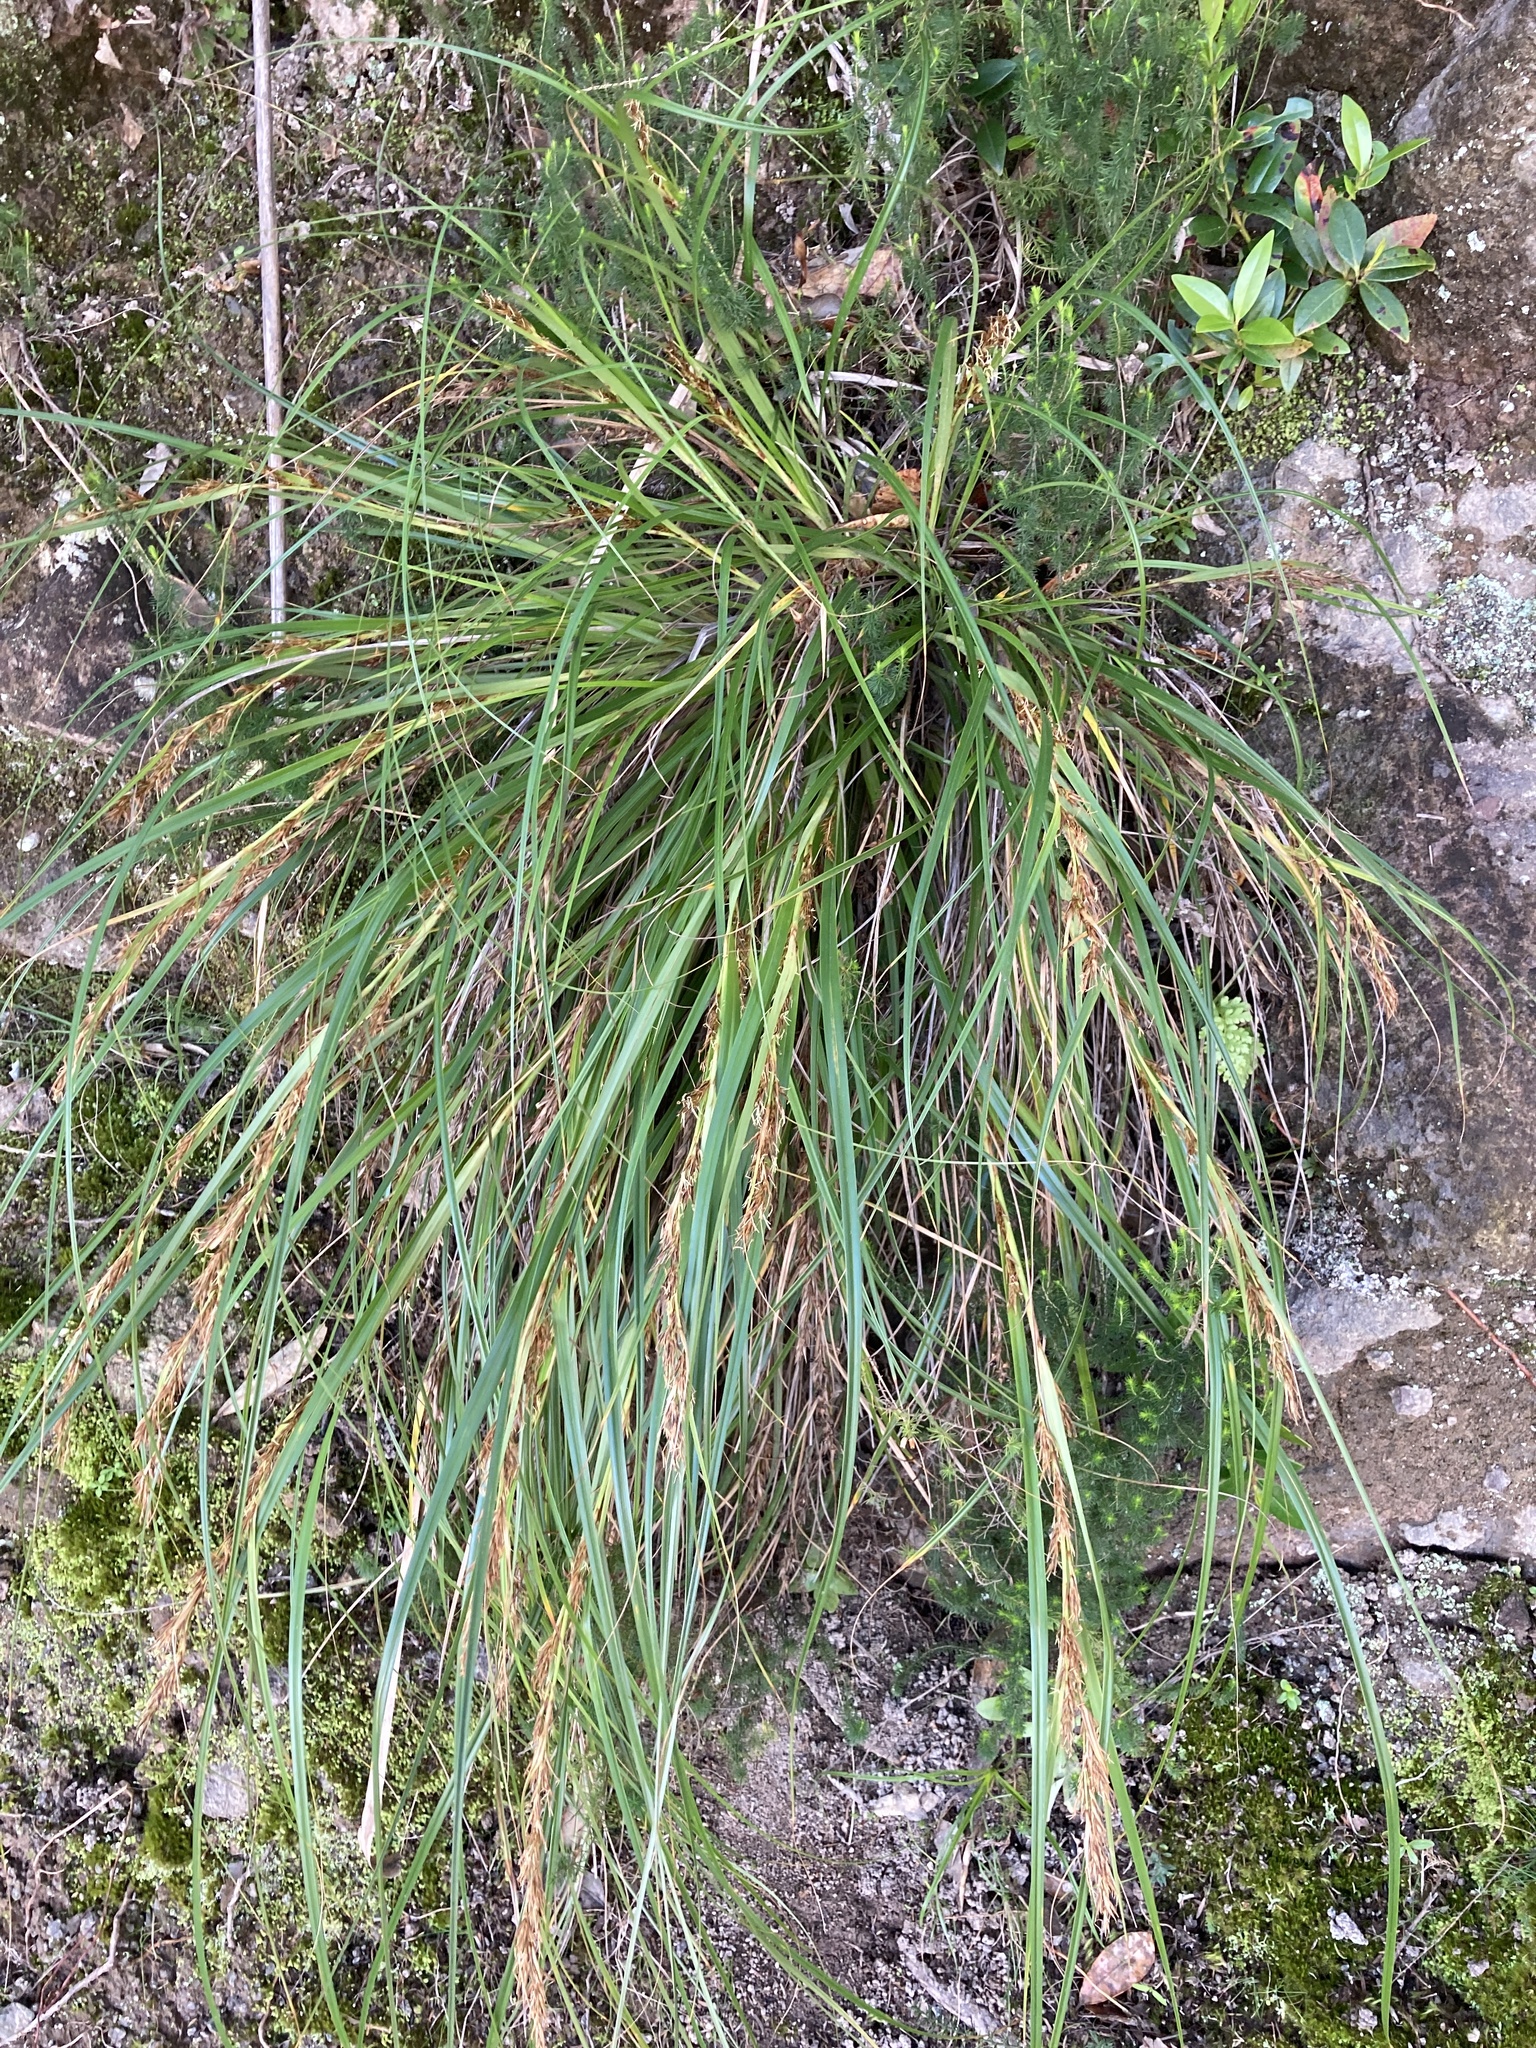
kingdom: Plantae
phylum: Tracheophyta
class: Liliopsida
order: Poales
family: Cyperaceae
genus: Morelotia
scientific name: Morelotia affinis
